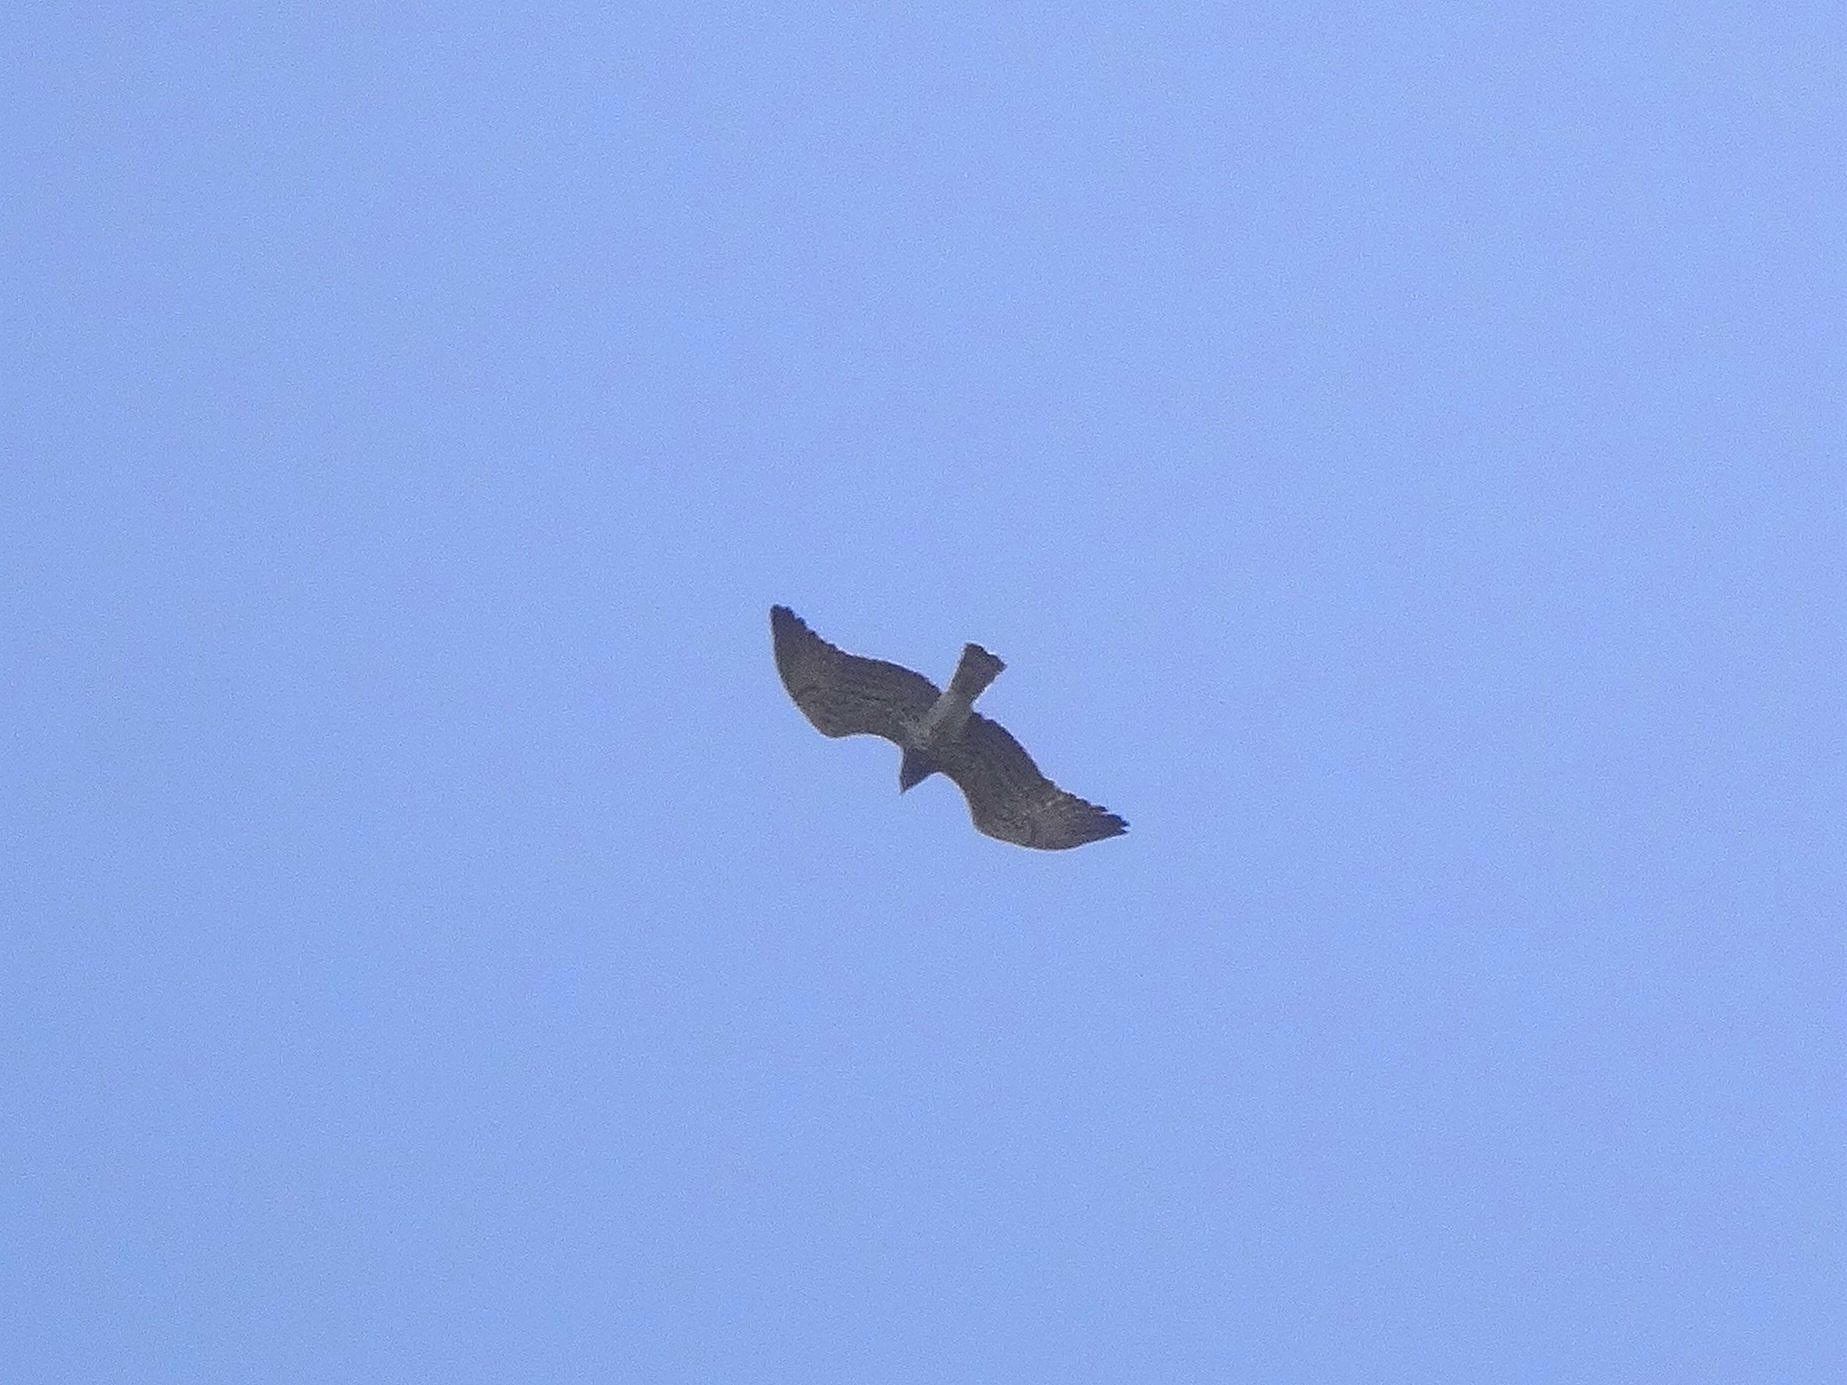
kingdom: Animalia
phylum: Chordata
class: Aves
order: Accipitriformes
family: Accipitridae
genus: Circaetus
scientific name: Circaetus gallicus
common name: Short-toed snake eagle
